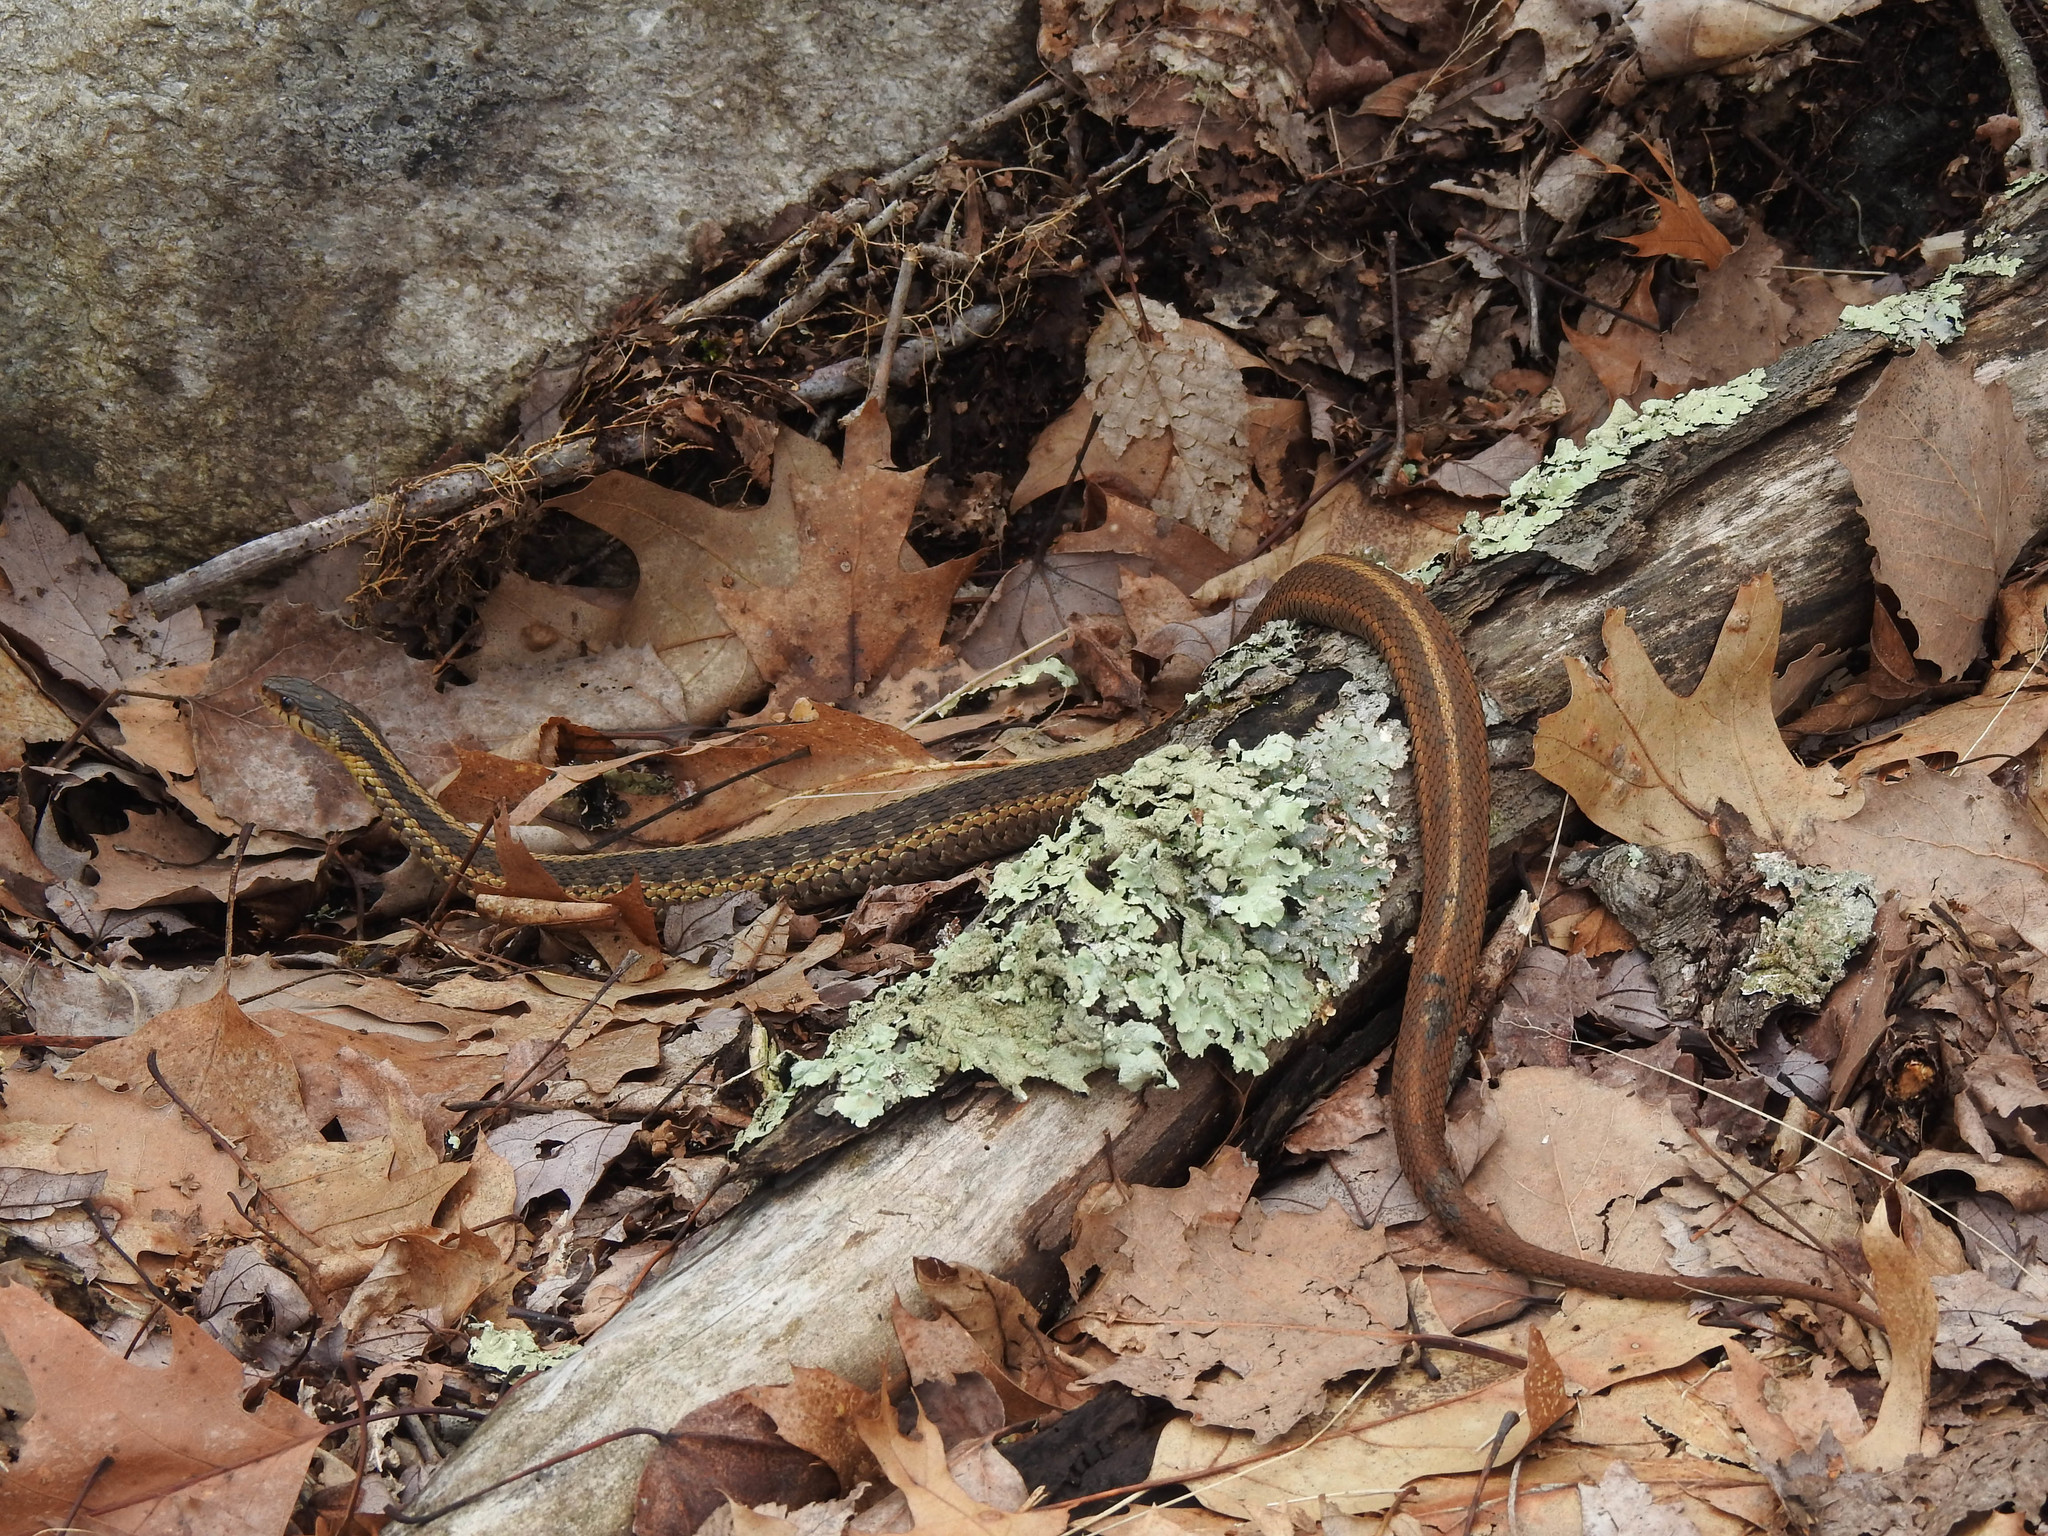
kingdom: Animalia
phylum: Chordata
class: Squamata
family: Colubridae
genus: Thamnophis
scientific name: Thamnophis sirtalis
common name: Common garter snake
